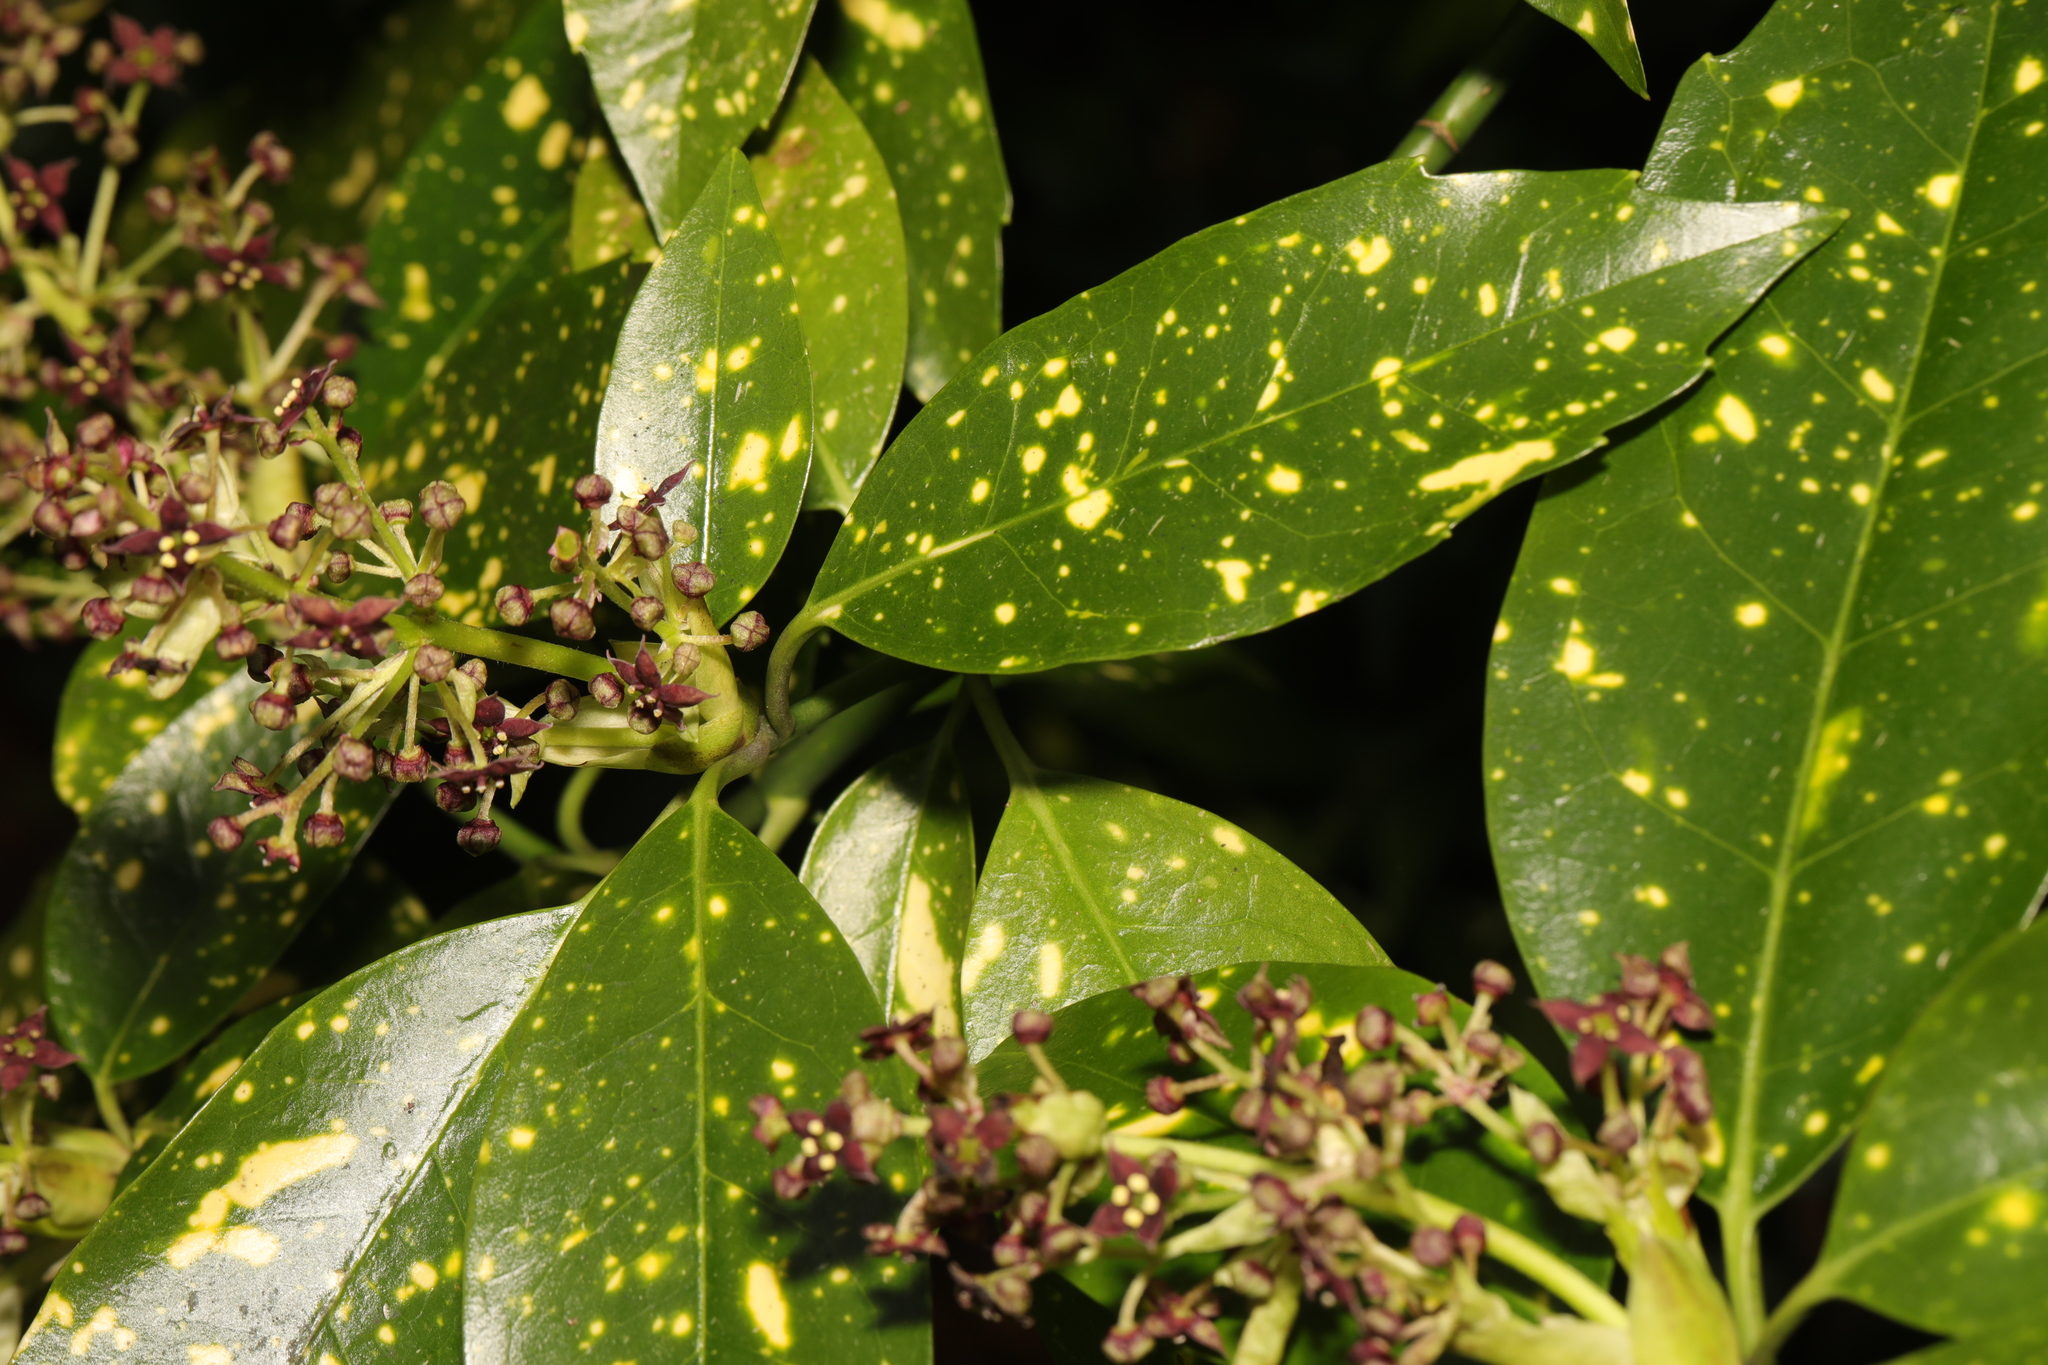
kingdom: Plantae
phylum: Tracheophyta
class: Magnoliopsida
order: Garryales
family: Garryaceae
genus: Aucuba
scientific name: Aucuba japonica
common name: Spotted-laurel
